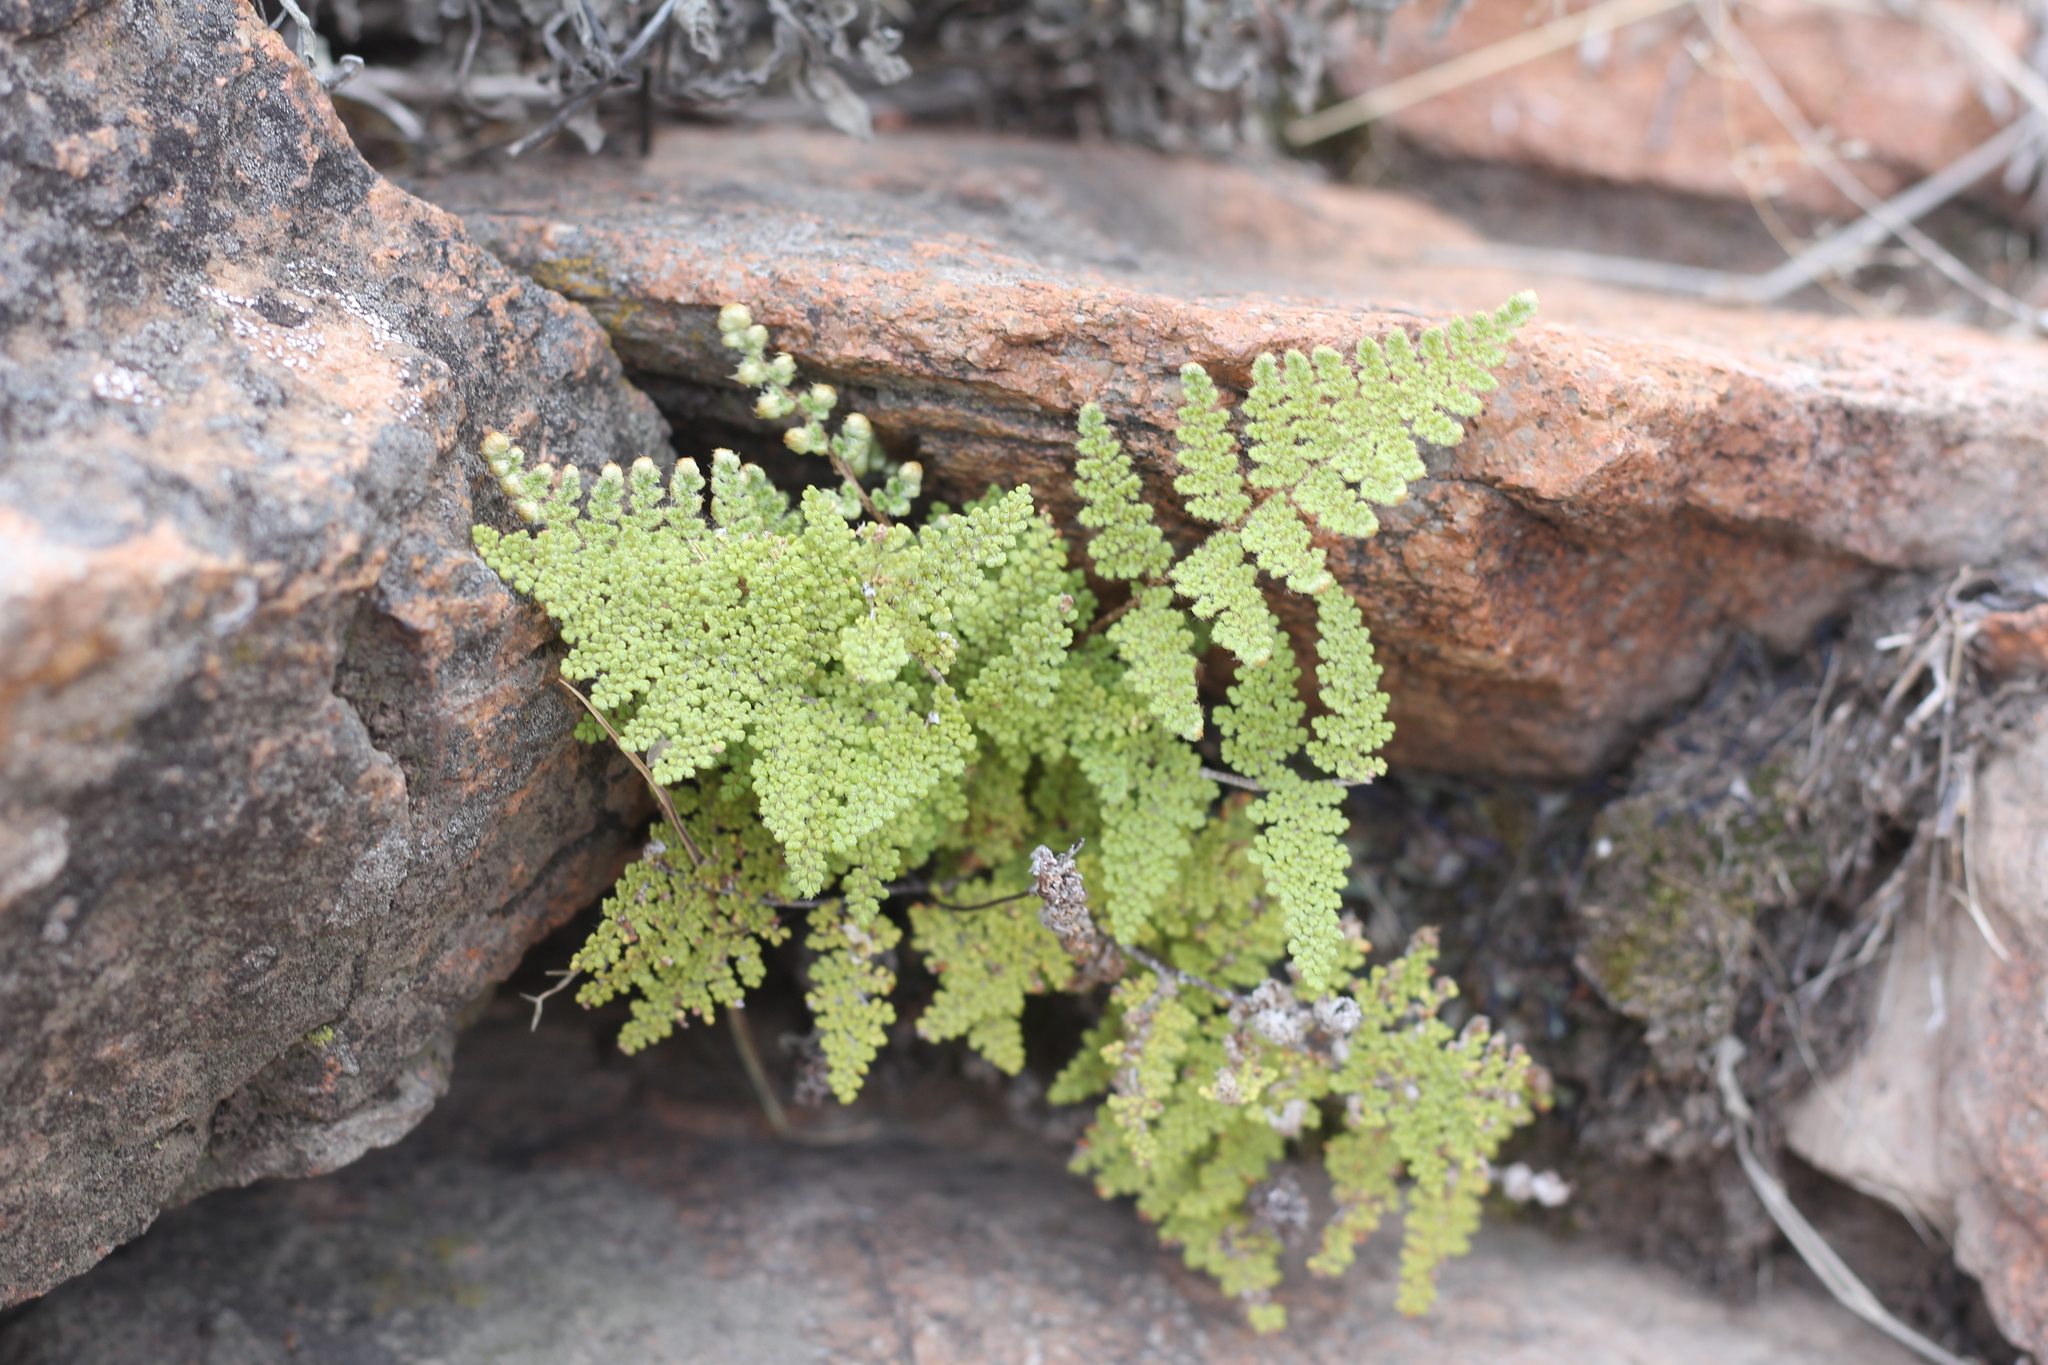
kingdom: Plantae
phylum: Tracheophyta
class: Polypodiopsida
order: Polypodiales
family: Pteridaceae
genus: Myriopteris
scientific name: Myriopteris myriophylla
